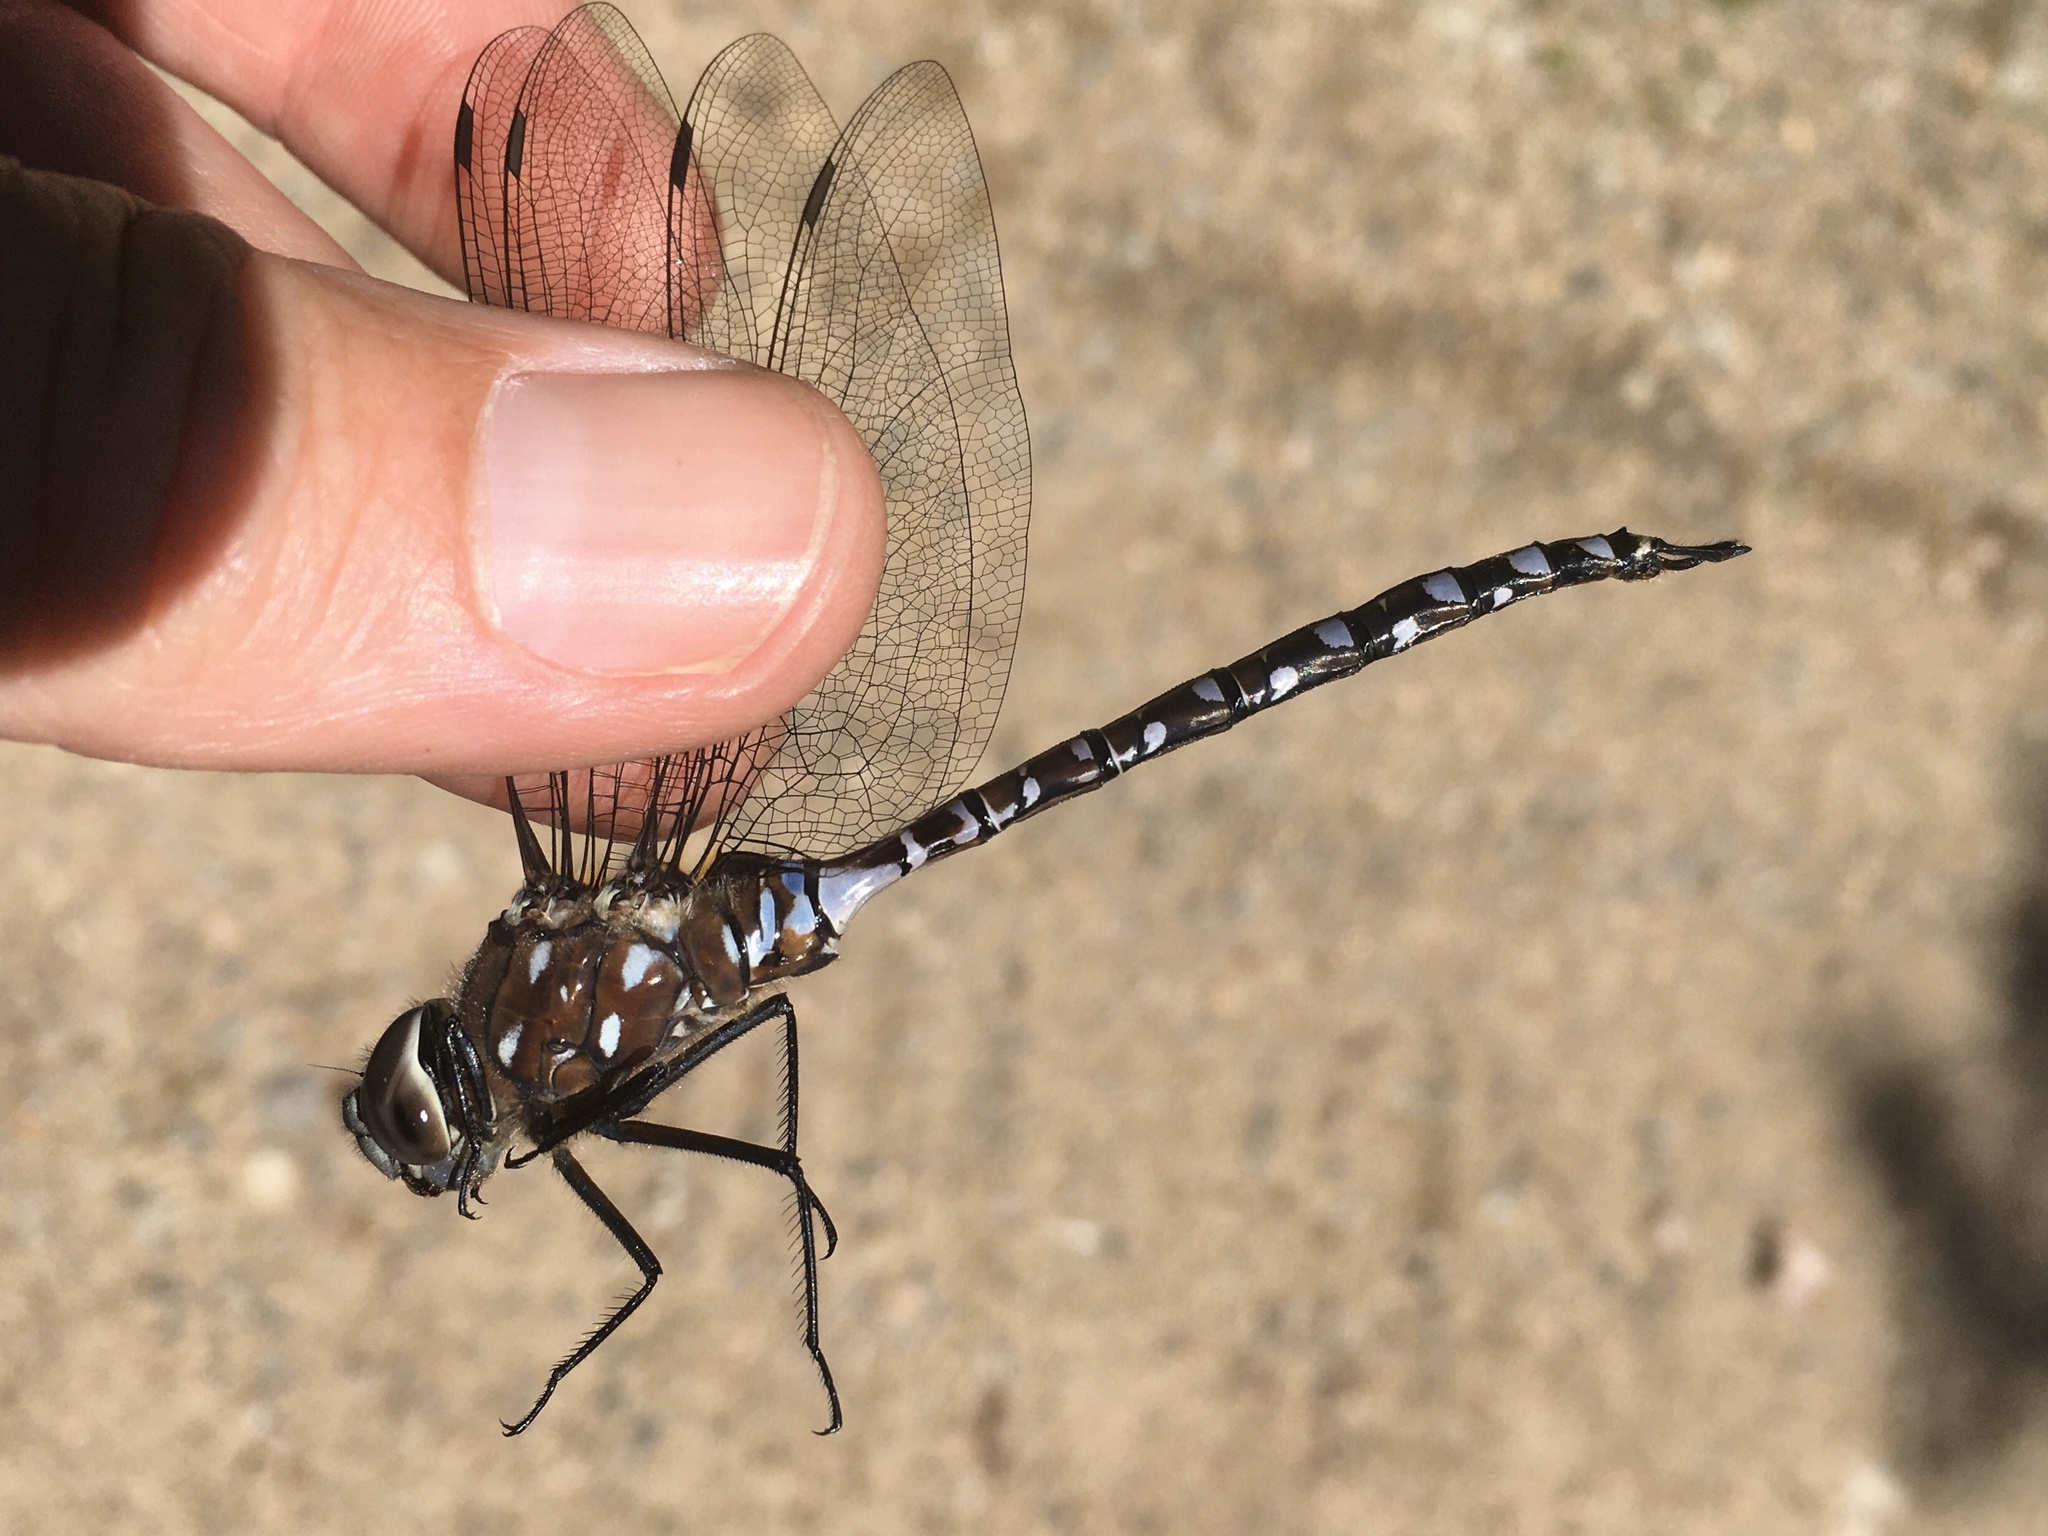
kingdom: Animalia
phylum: Arthropoda
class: Insecta
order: Odonata
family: Aeshnidae
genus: Aeshna
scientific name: Aeshna interrupta
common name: Variable darner
